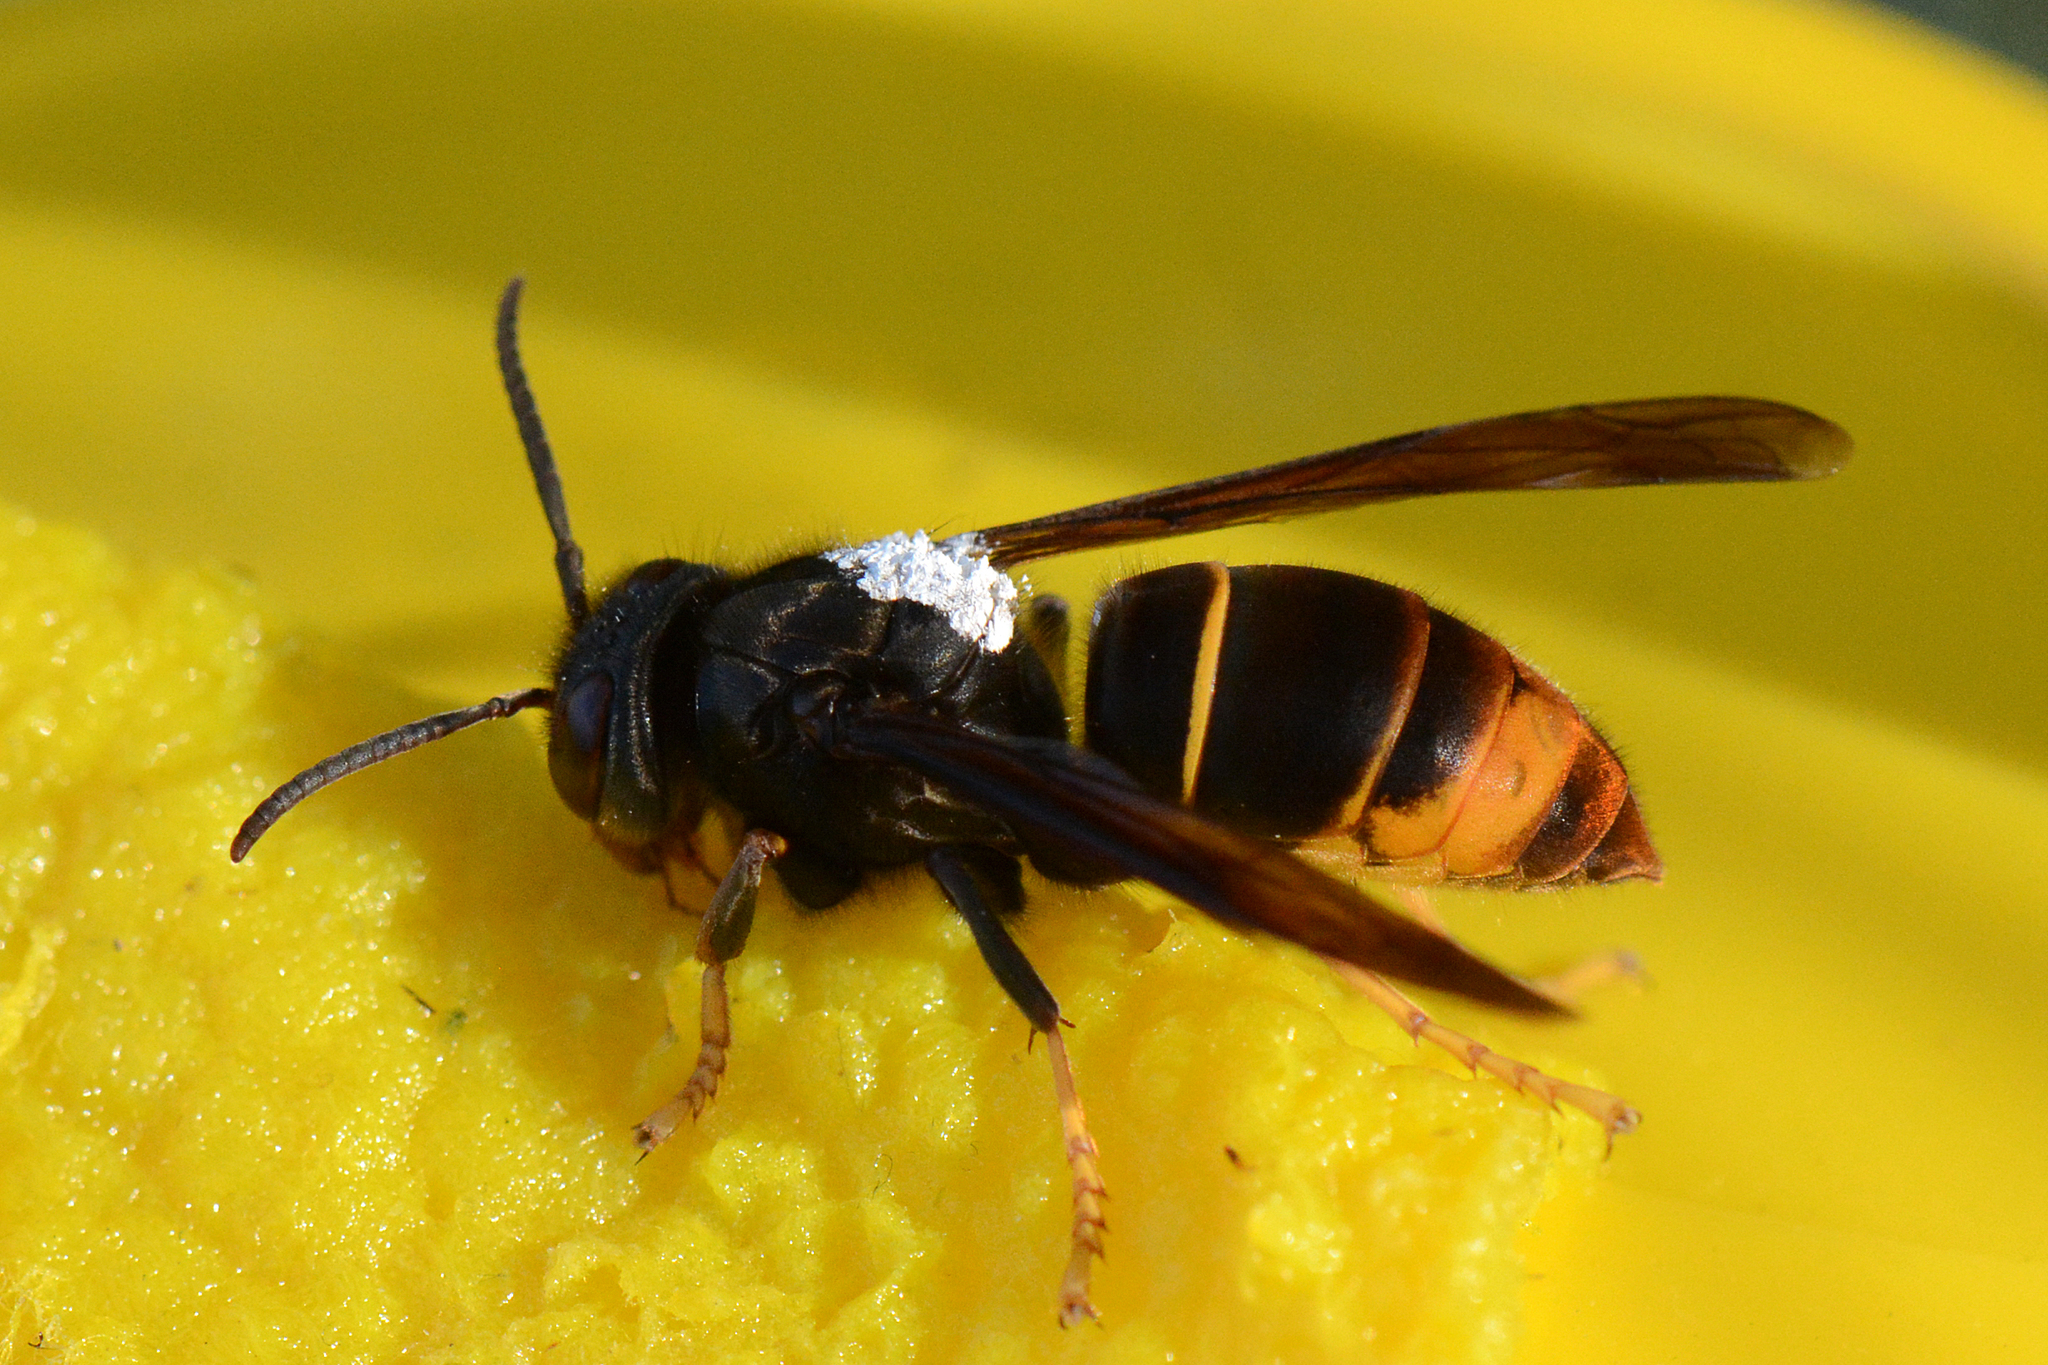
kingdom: Animalia
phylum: Arthropoda
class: Insecta
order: Hymenoptera
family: Vespidae
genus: Vespa
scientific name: Vespa velutina
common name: Asian hornet
